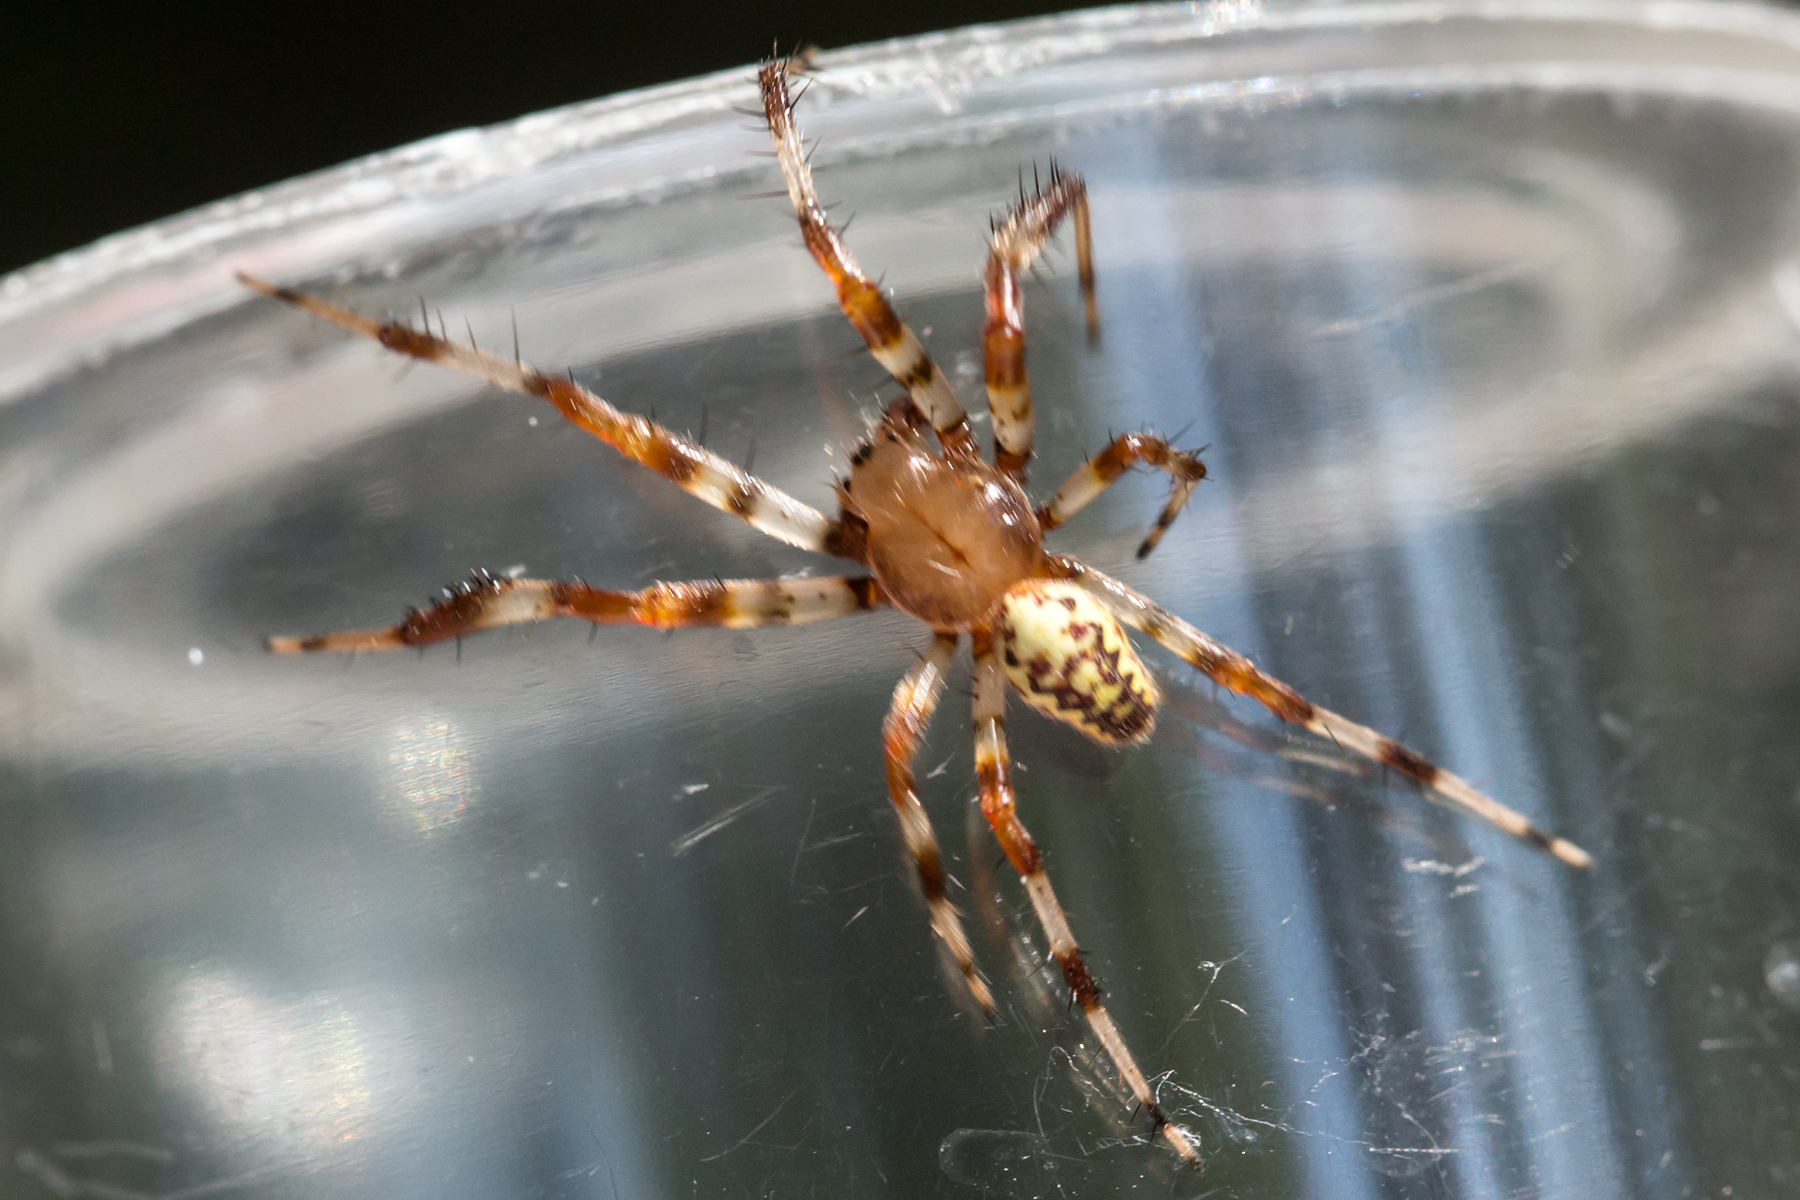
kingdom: Animalia
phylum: Arthropoda
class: Arachnida
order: Araneae
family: Araneidae
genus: Araneus
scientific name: Araneus marmoreus
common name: Marbled orbweaver
